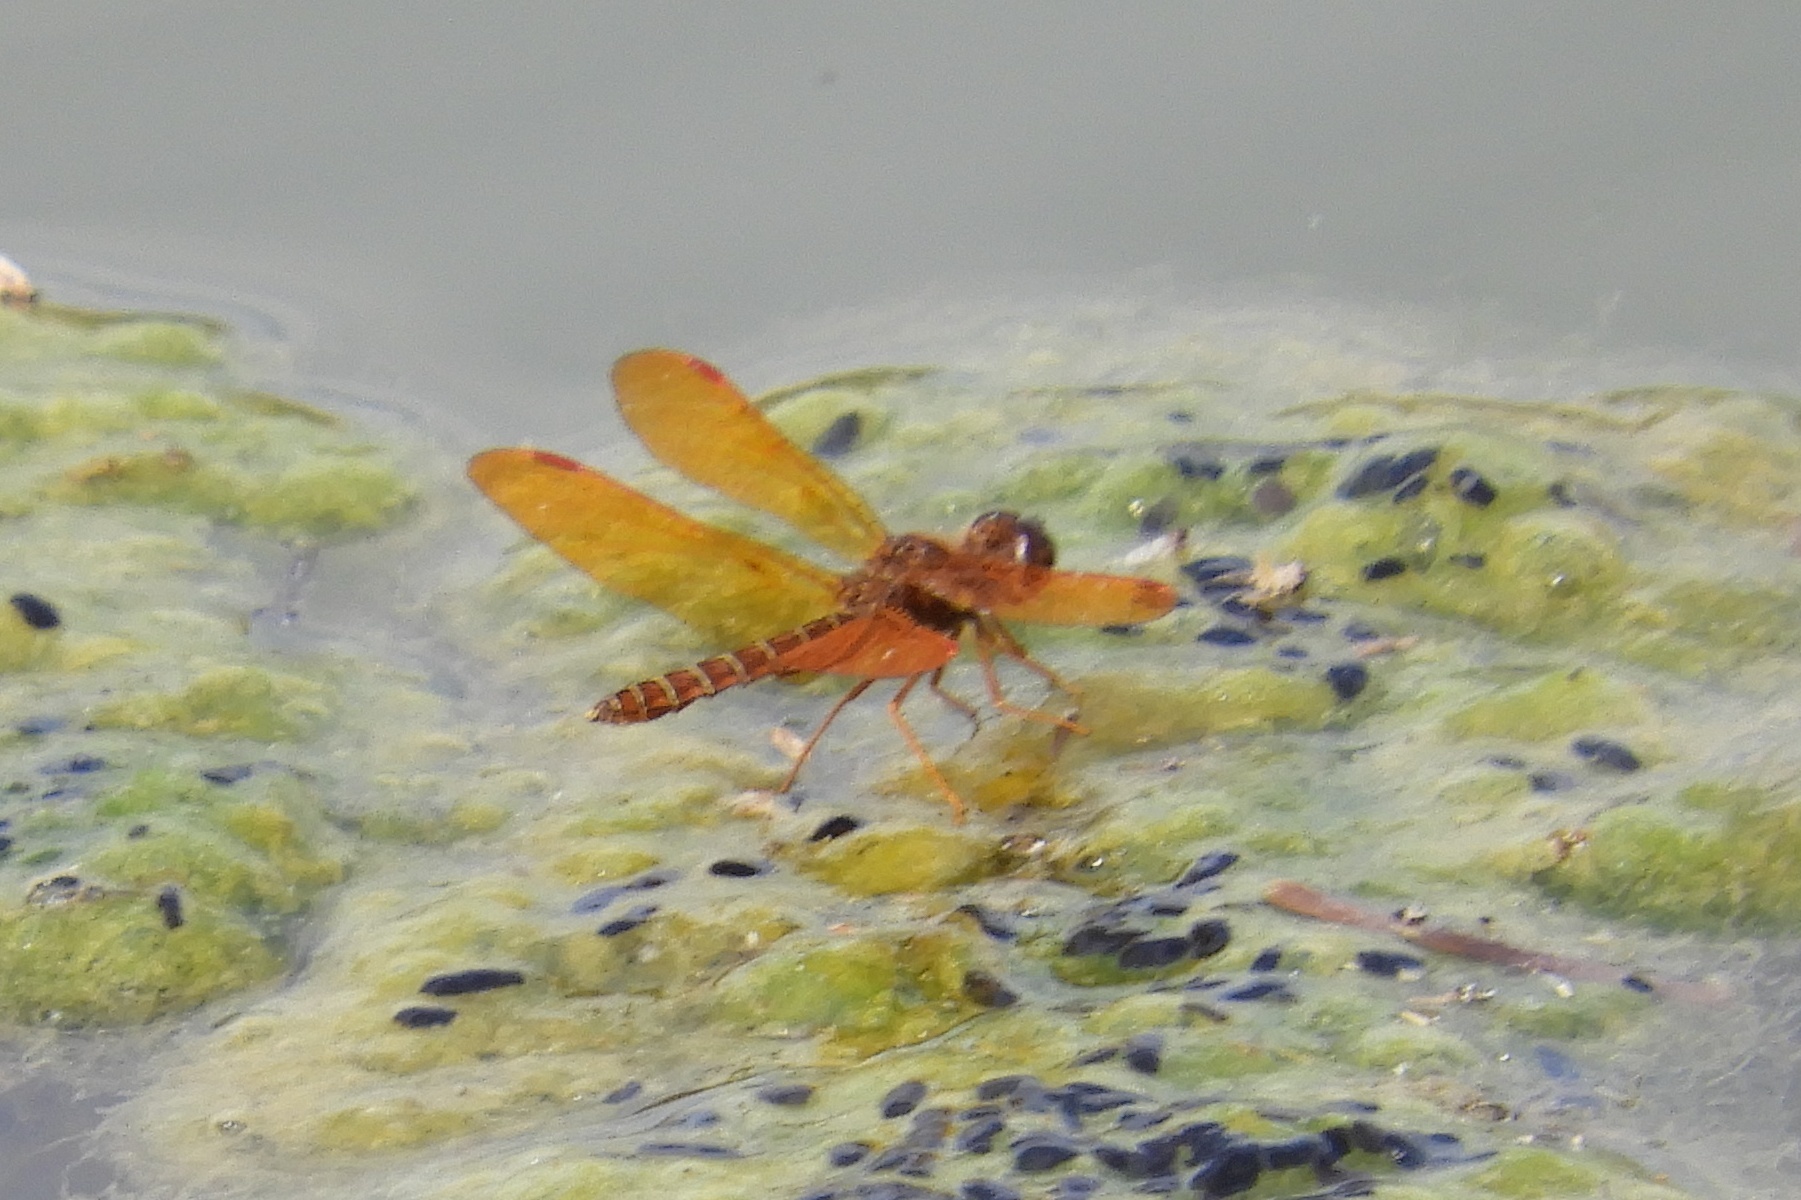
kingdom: Animalia
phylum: Arthropoda
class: Insecta
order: Odonata
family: Libellulidae
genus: Perithemis
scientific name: Perithemis tenera
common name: Eastern amberwing
